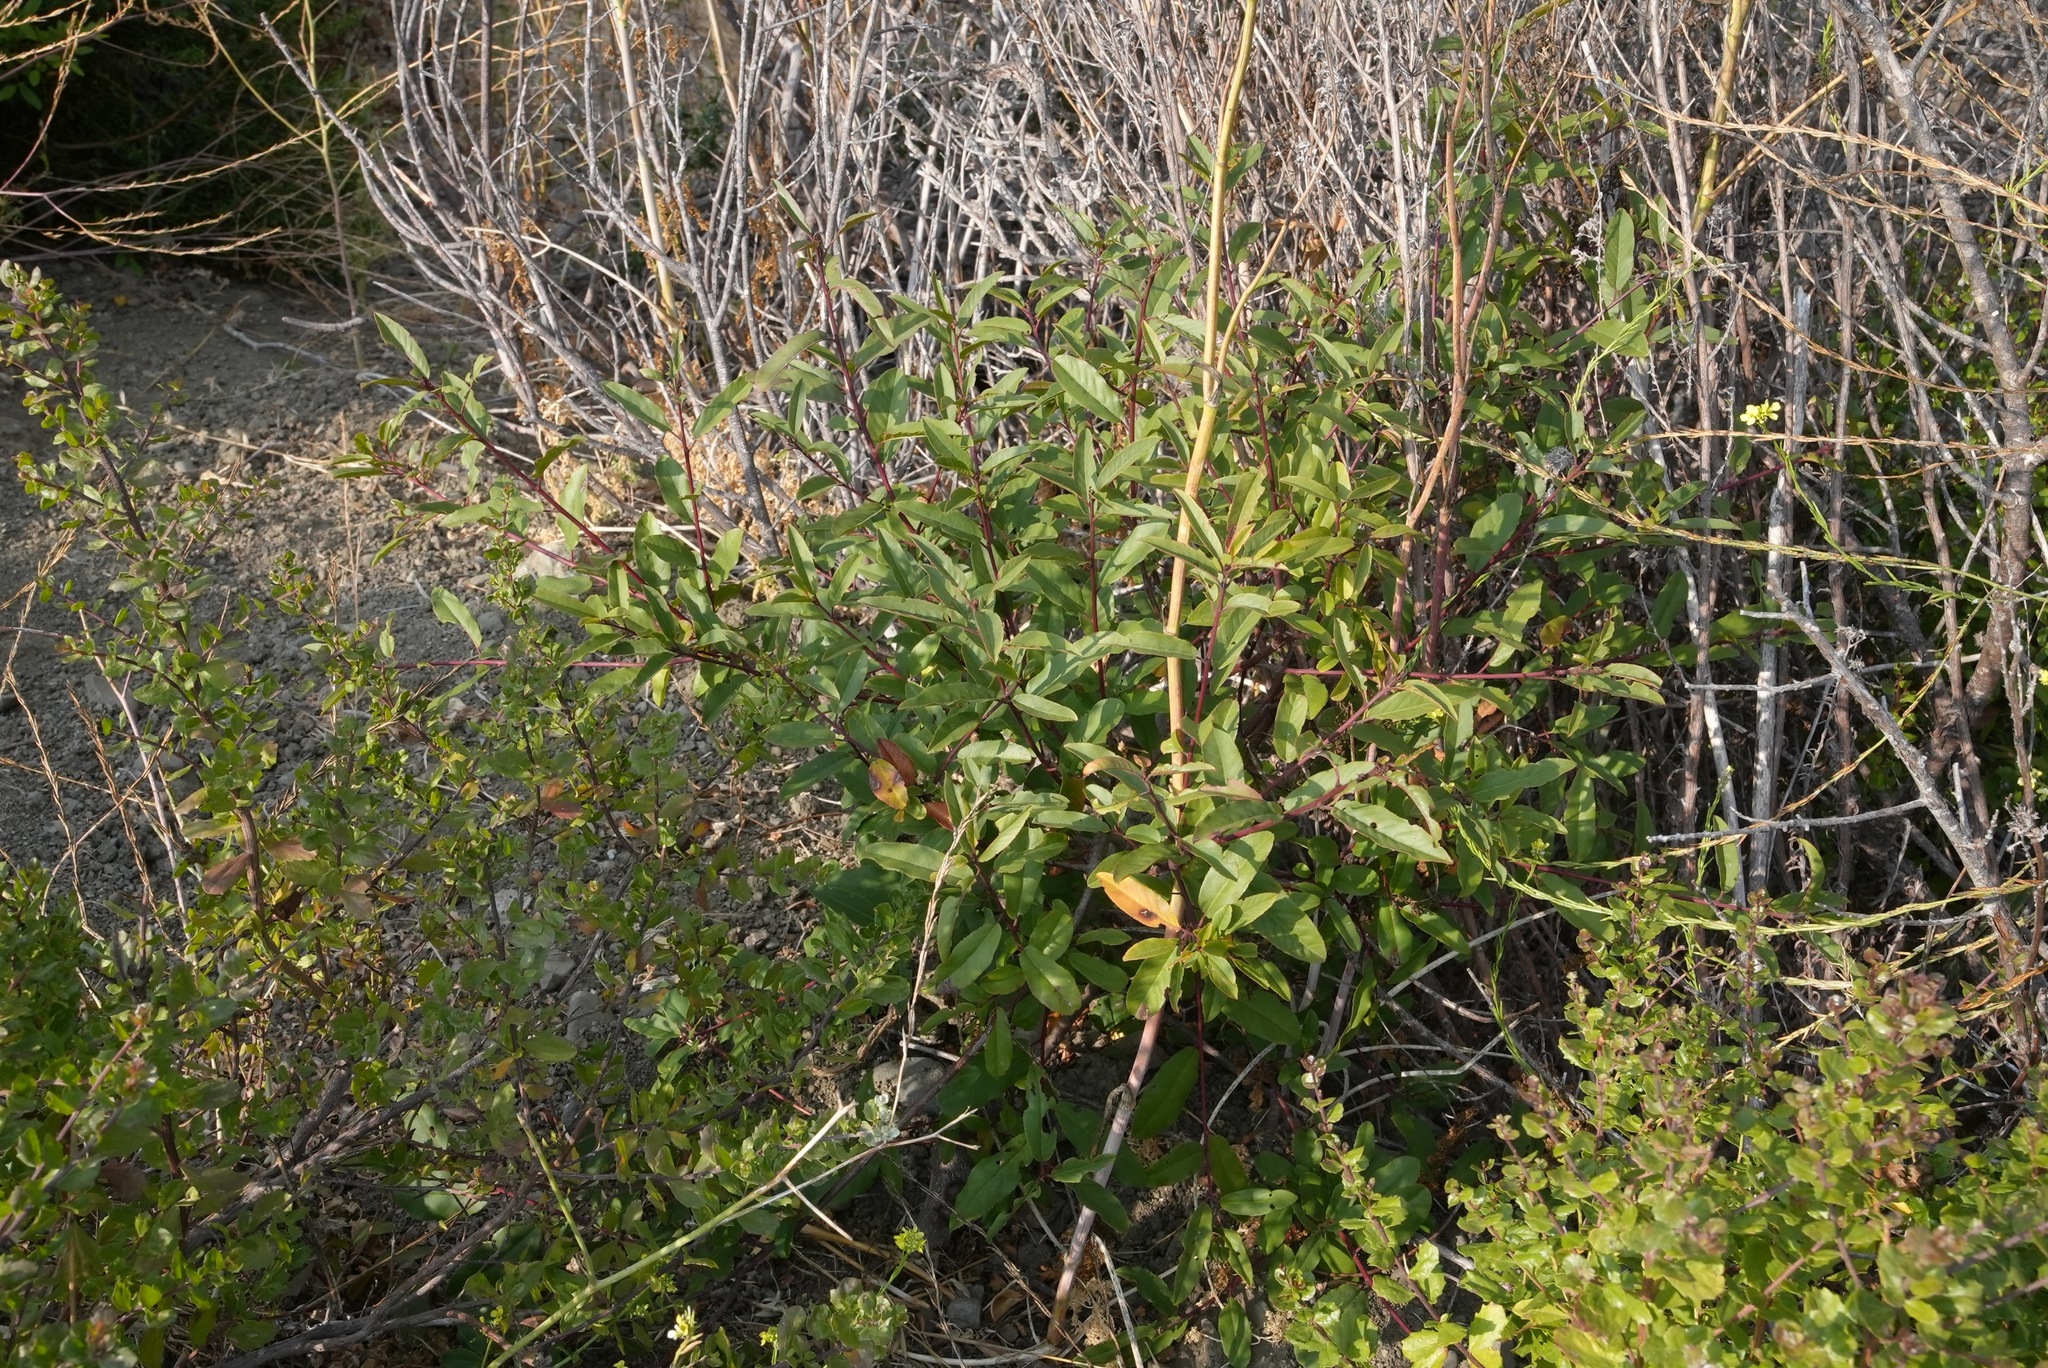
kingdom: Plantae
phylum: Tracheophyta
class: Magnoliopsida
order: Rosales
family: Rhamnaceae
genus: Frangula
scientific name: Frangula californica
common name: California buckthorn
